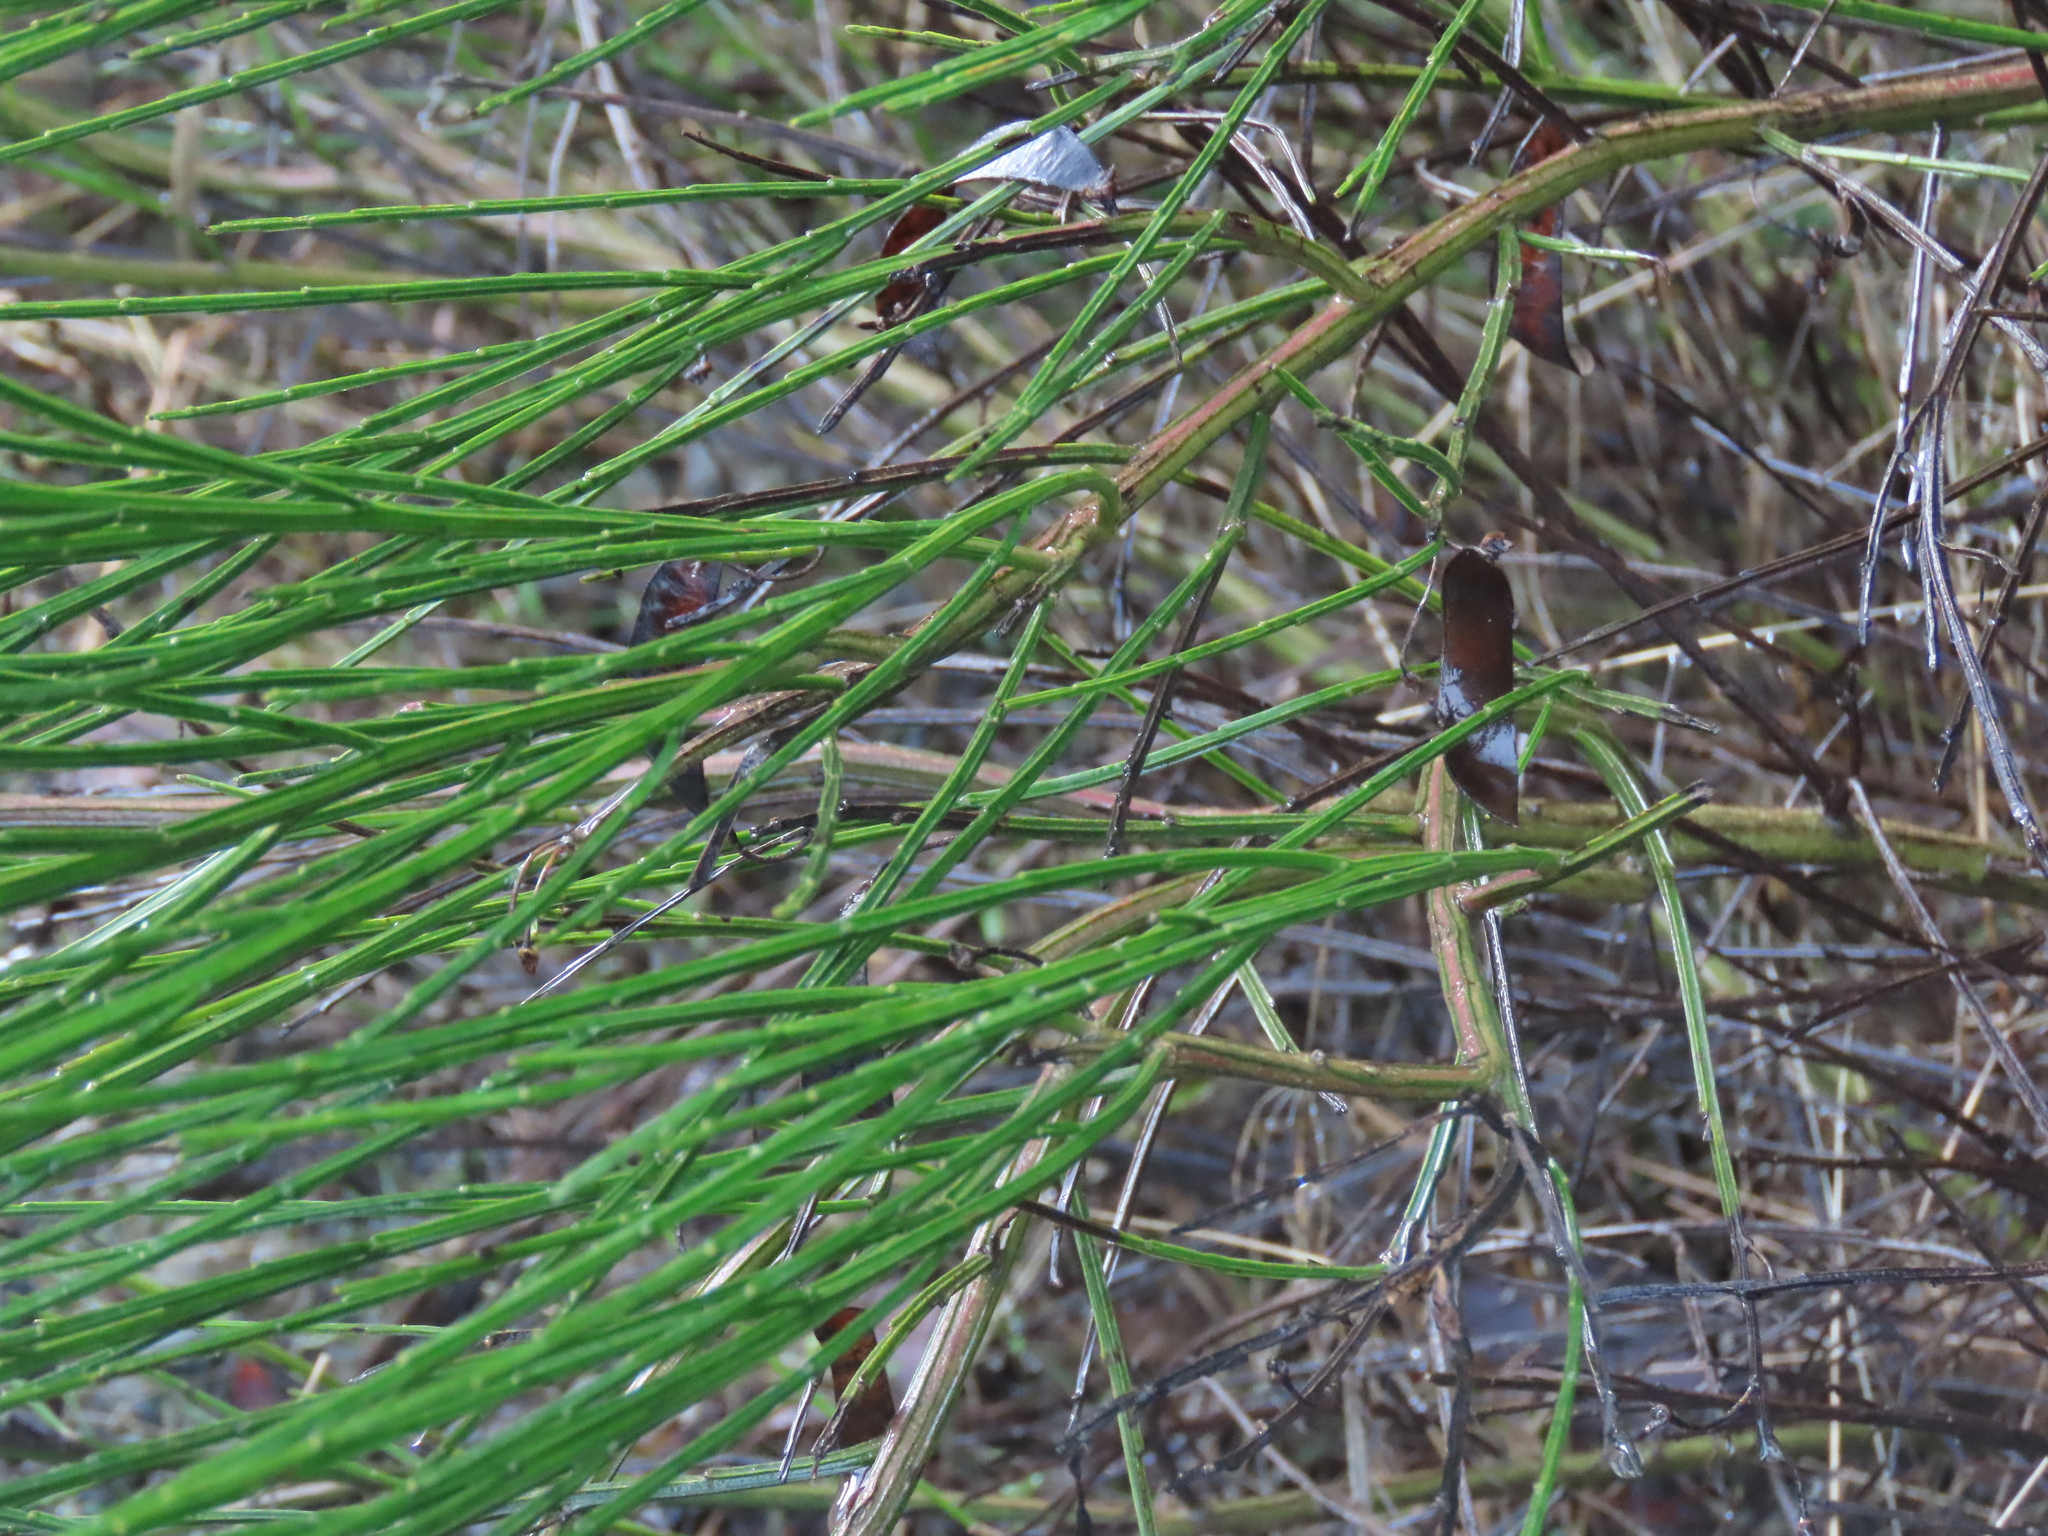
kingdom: Plantae
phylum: Tracheophyta
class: Magnoliopsida
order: Fabales
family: Fabaceae
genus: Cytisus
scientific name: Cytisus scoparius
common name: Scotch broom
